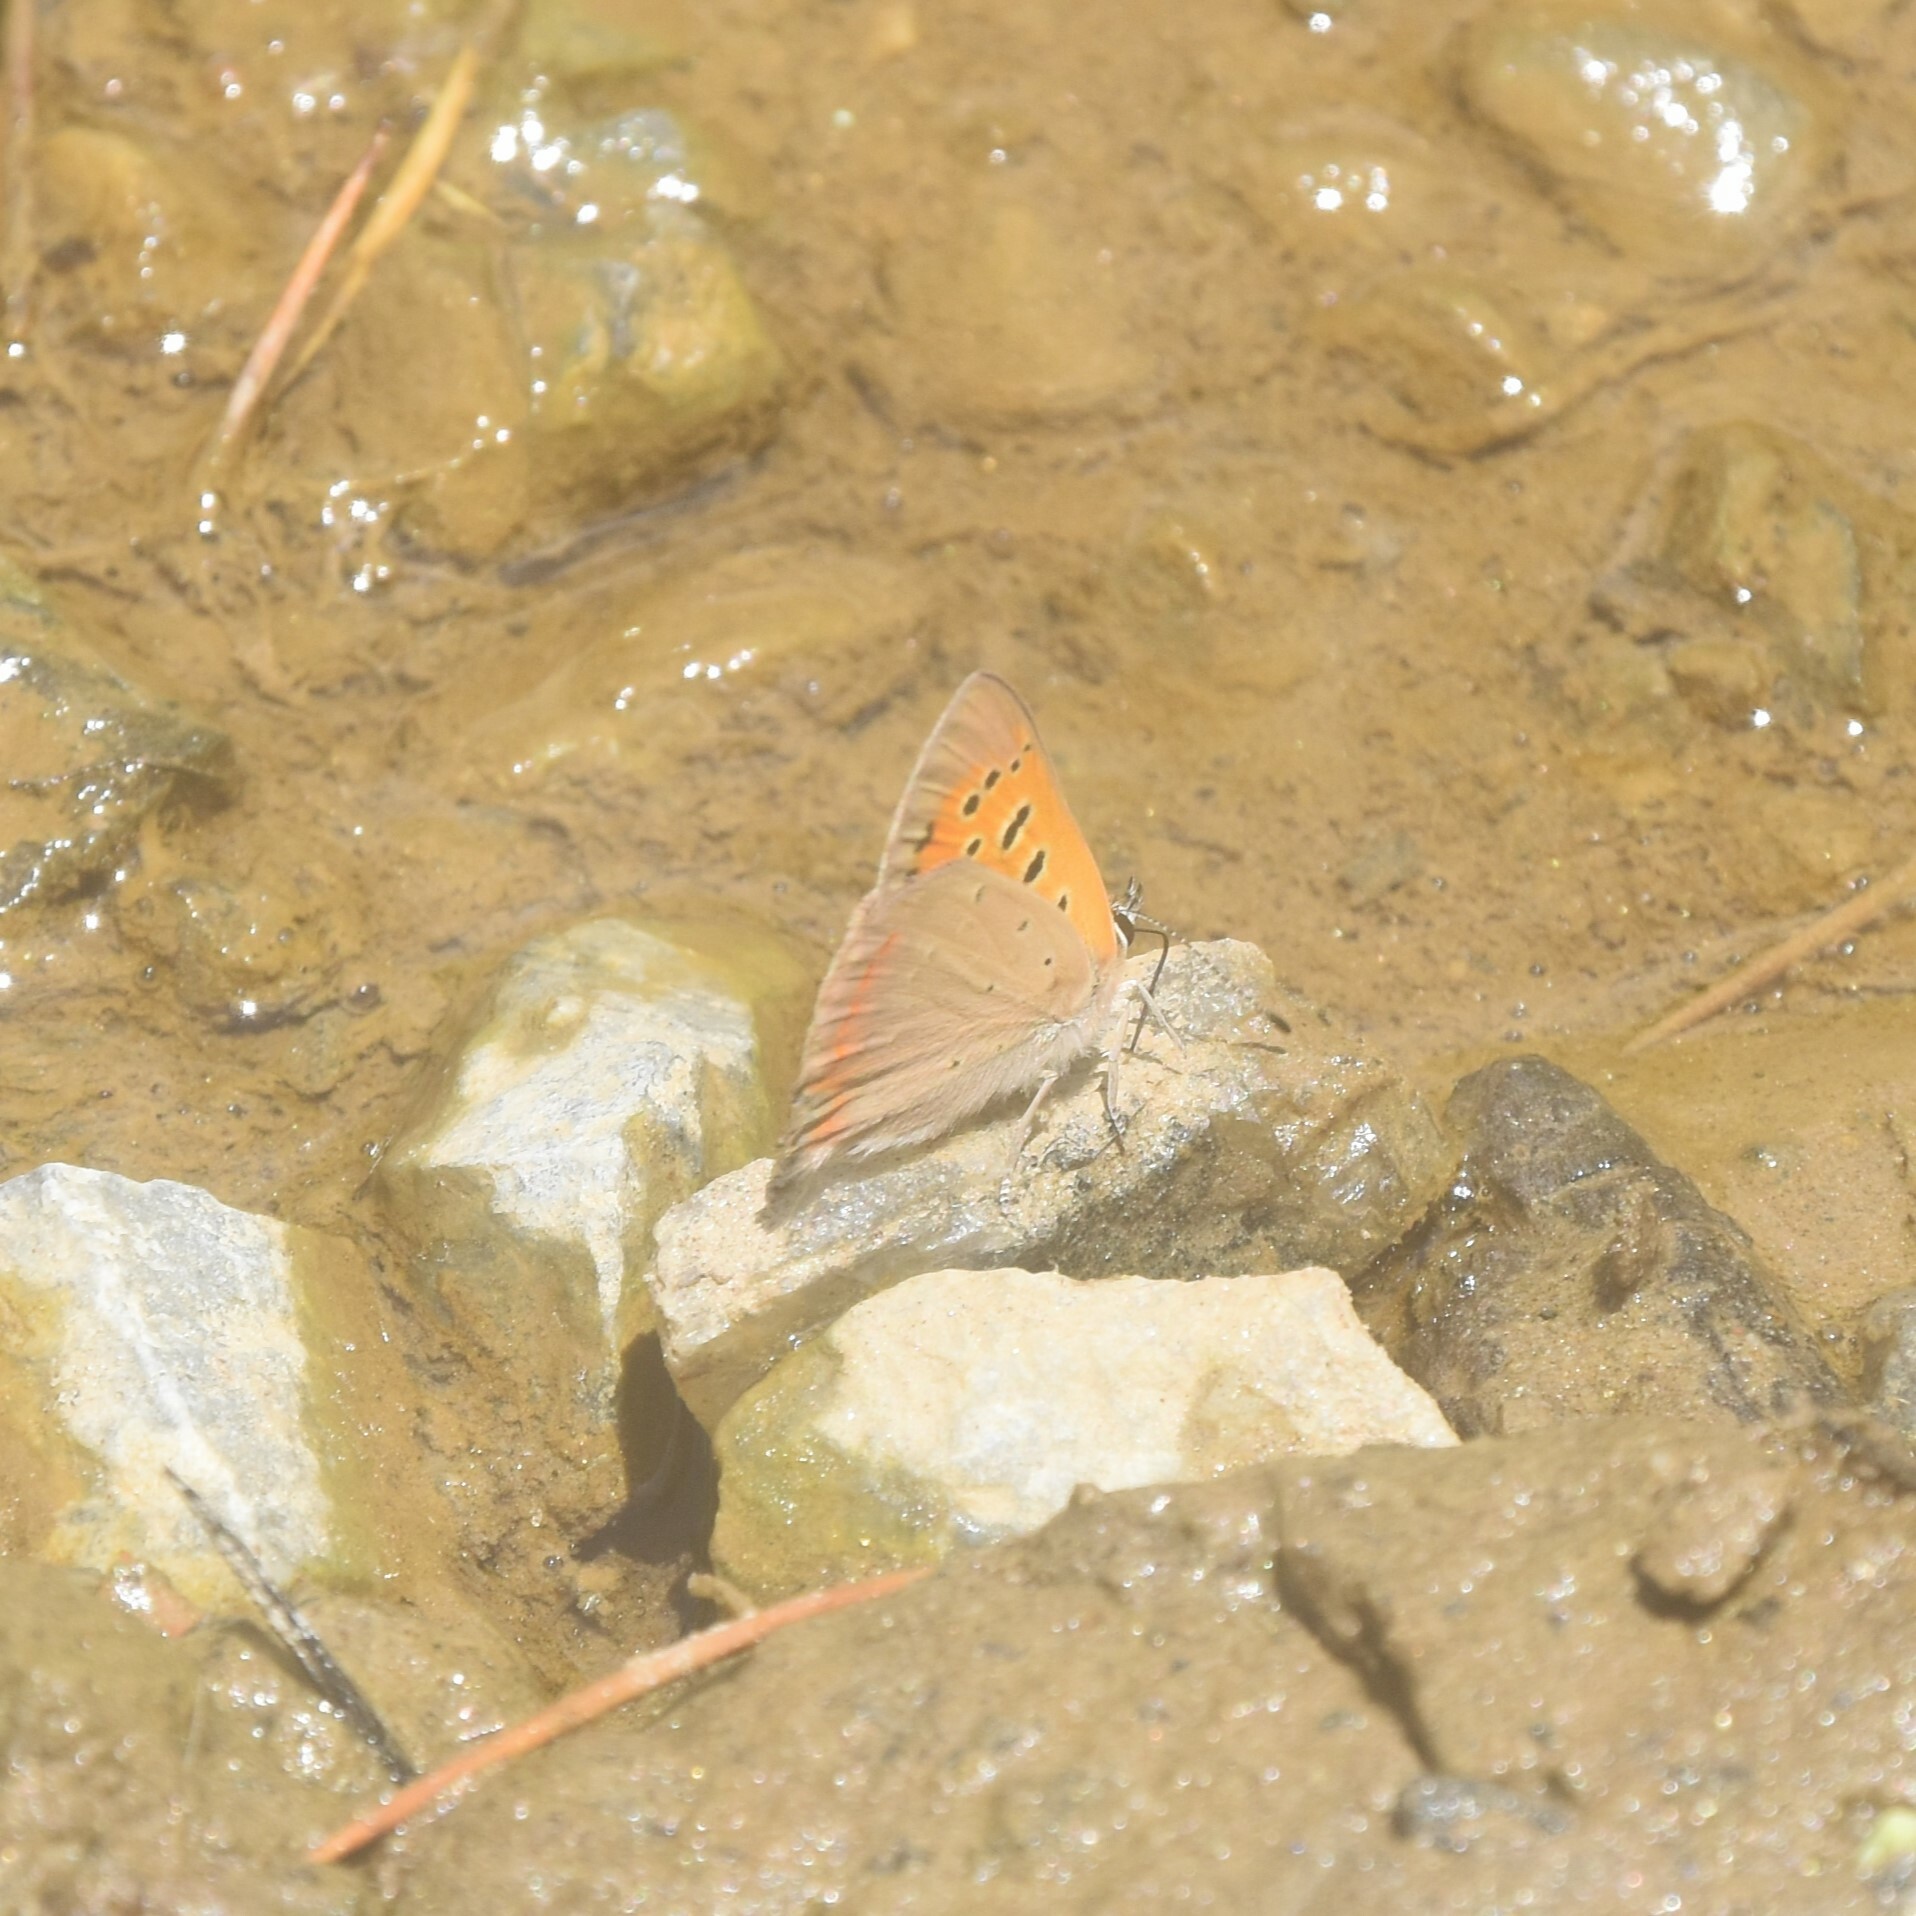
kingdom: Animalia
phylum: Arthropoda
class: Insecta
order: Lepidoptera
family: Lycaenidae
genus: Lycaena
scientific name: Lycaena phlaeas
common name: Small copper
